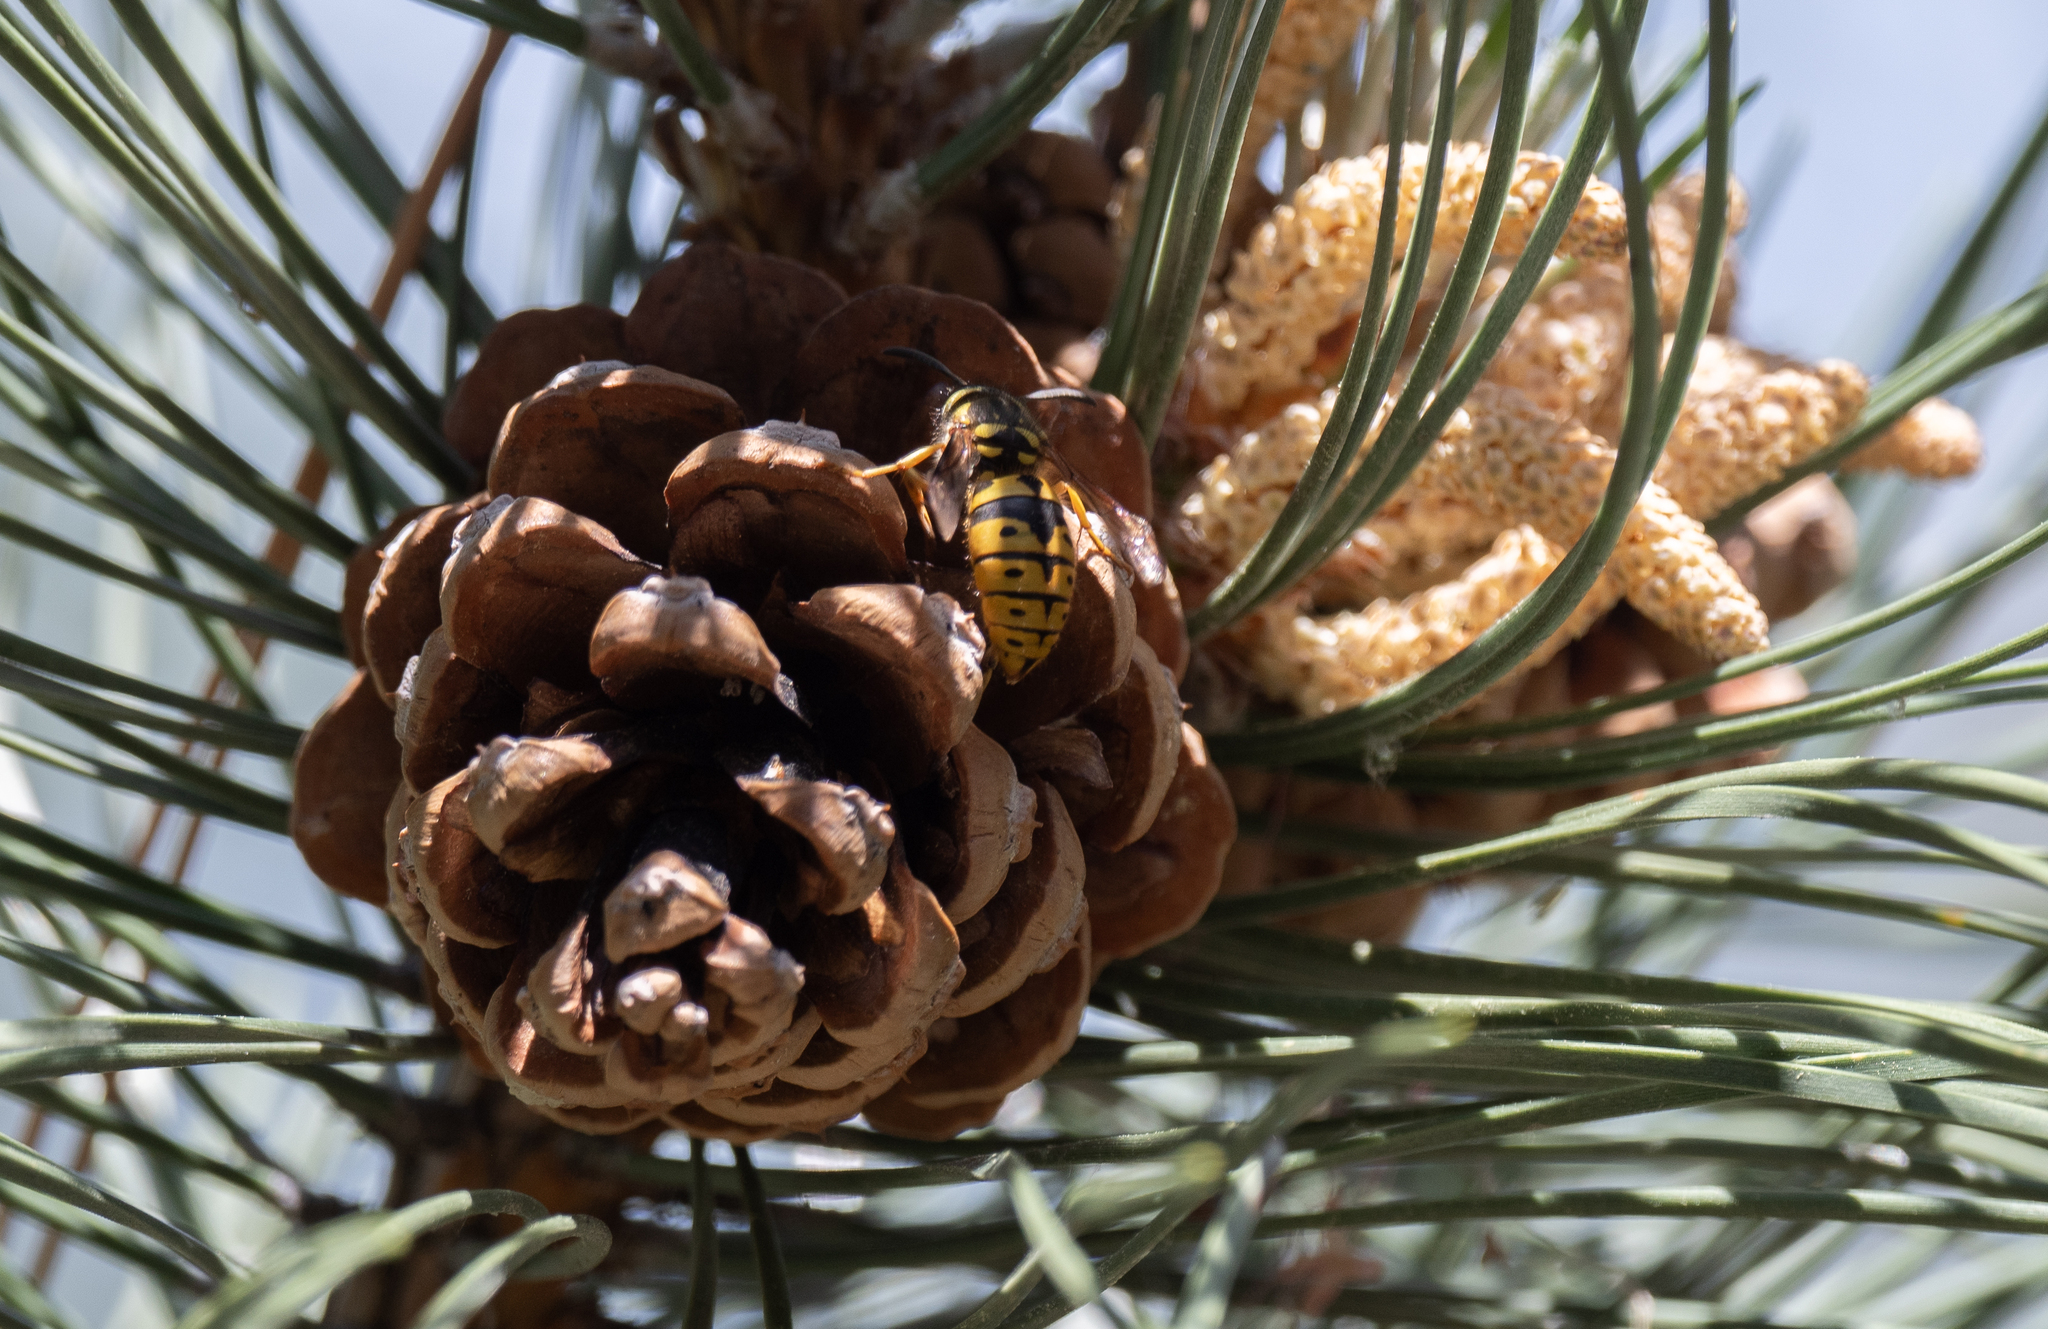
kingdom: Animalia
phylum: Arthropoda
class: Insecta
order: Hymenoptera
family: Vespidae
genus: Vespula
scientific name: Vespula pensylvanica
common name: Western yellowjacket
